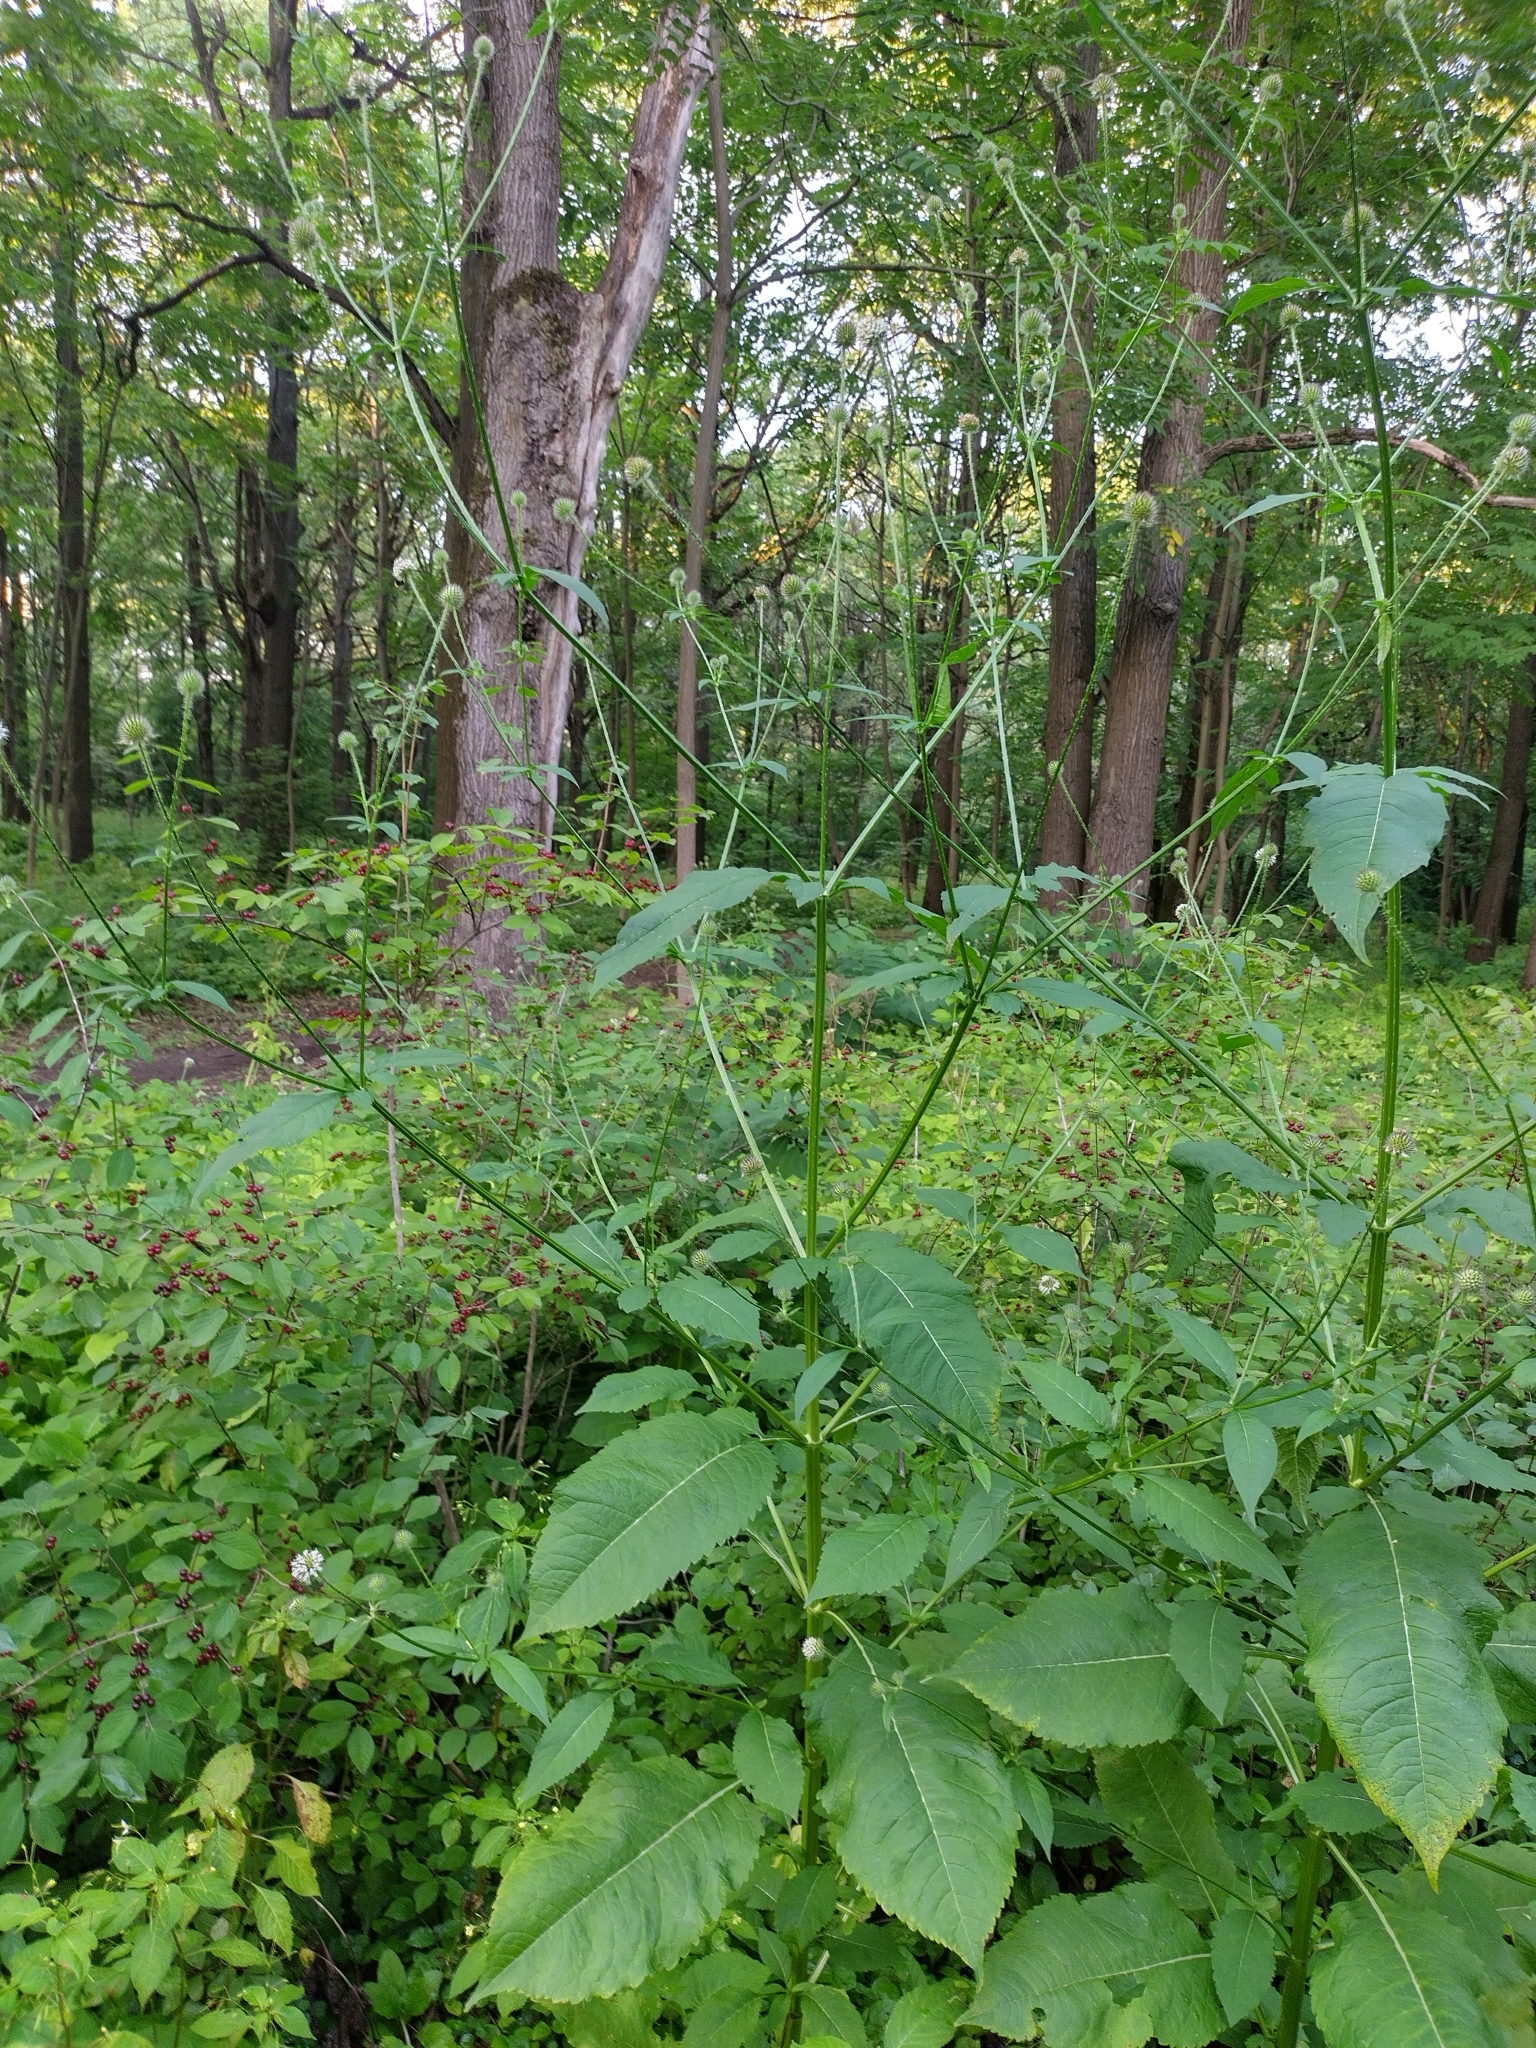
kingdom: Plantae
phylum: Tracheophyta
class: Magnoliopsida
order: Dipsacales
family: Caprifoliaceae
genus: Dipsacus
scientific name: Dipsacus pilosus
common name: Small teasel
